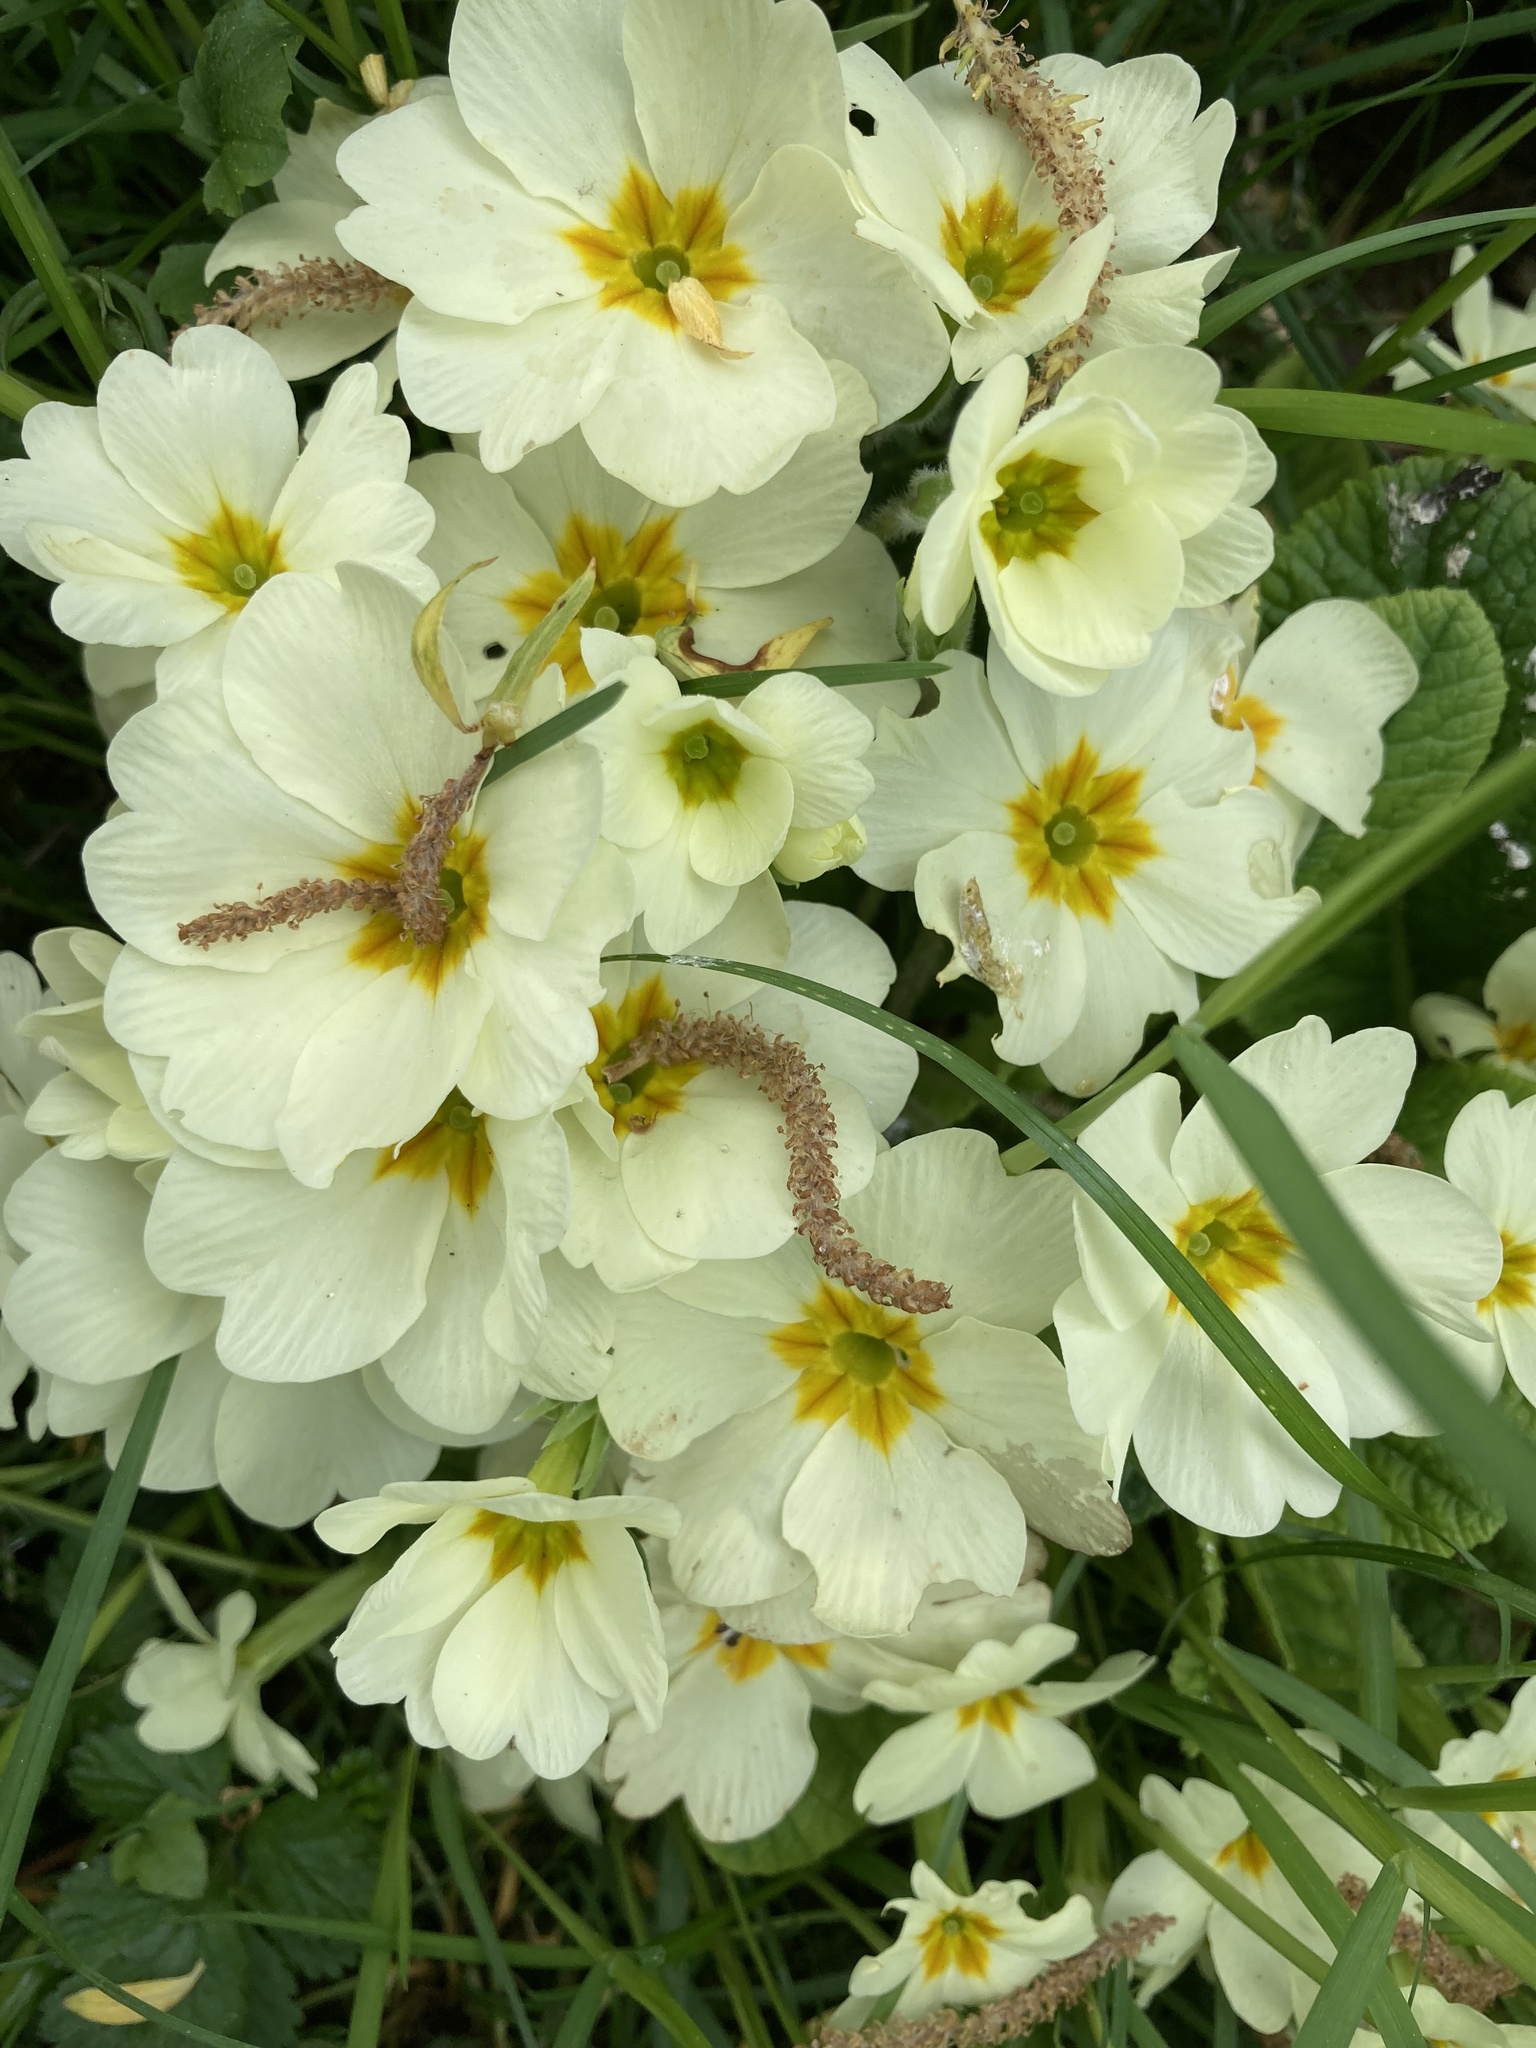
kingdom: Plantae
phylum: Tracheophyta
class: Magnoliopsida
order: Ericales
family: Primulaceae
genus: Primula
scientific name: Primula vulgaris
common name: Primrose
